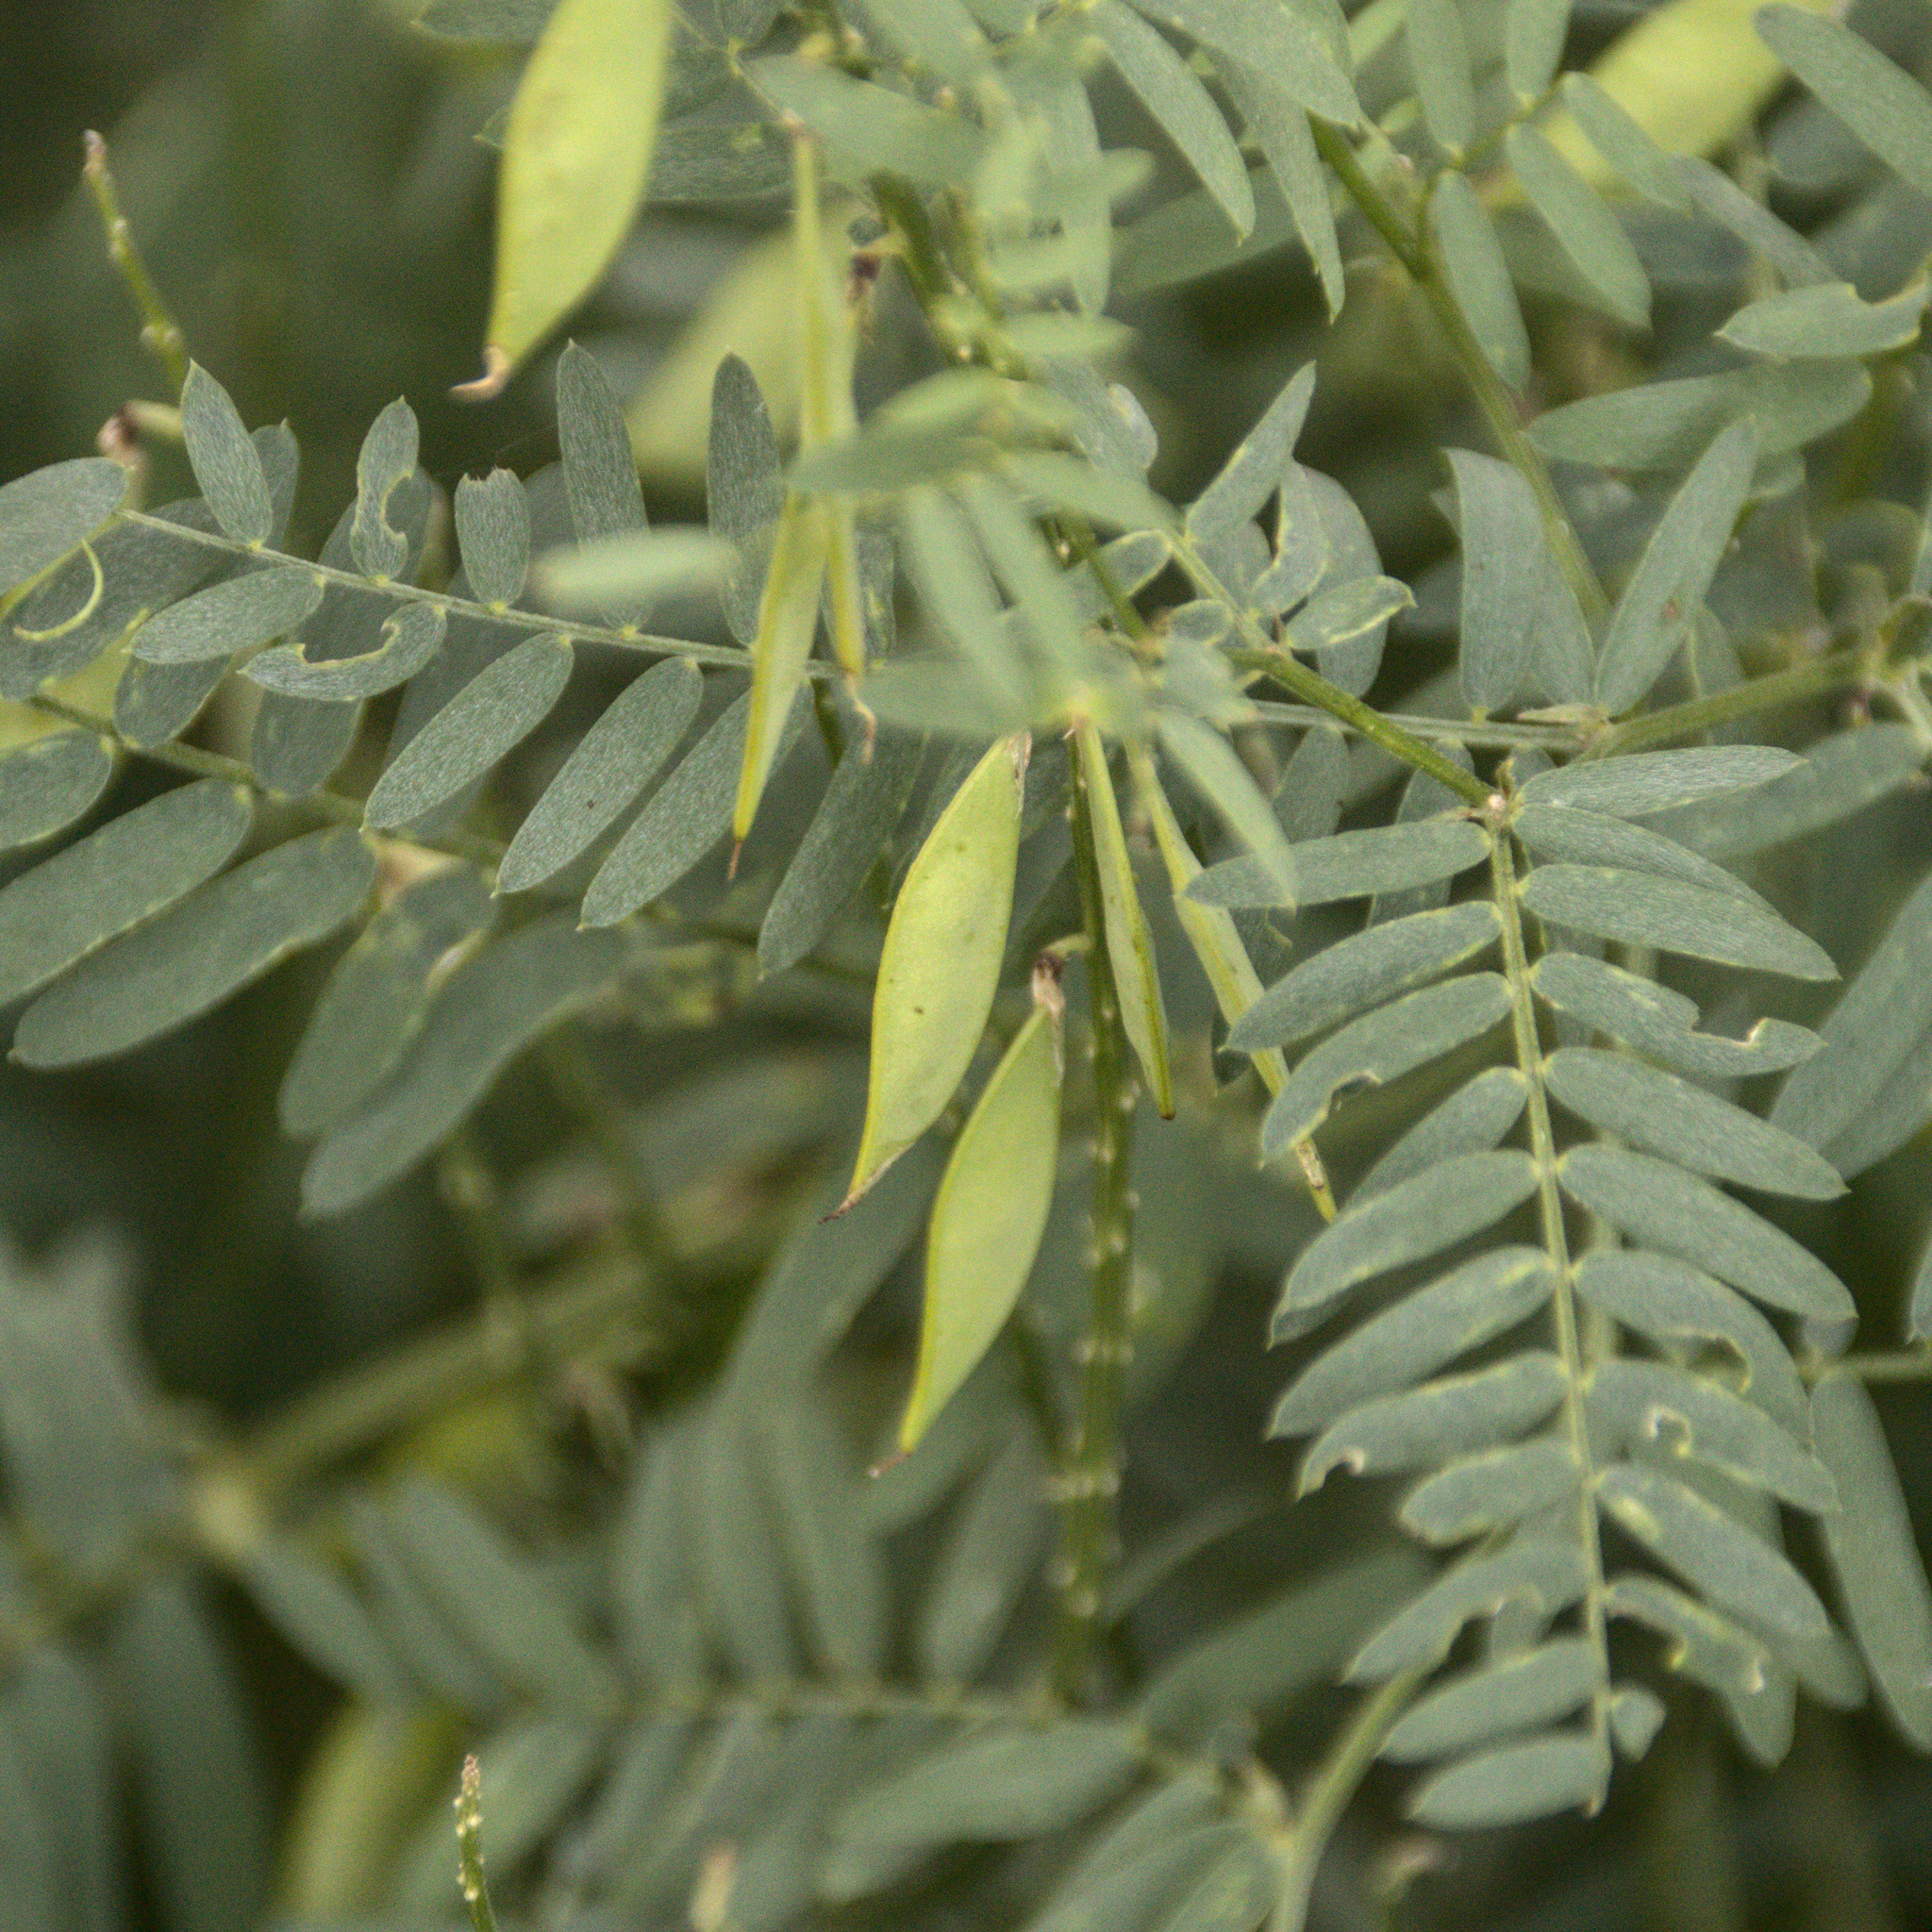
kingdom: Plantae
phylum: Tracheophyta
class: Magnoliopsida
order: Fabales
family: Fabaceae
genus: Vicia
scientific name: Vicia tenuifolia
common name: Fine-leaved vetch
